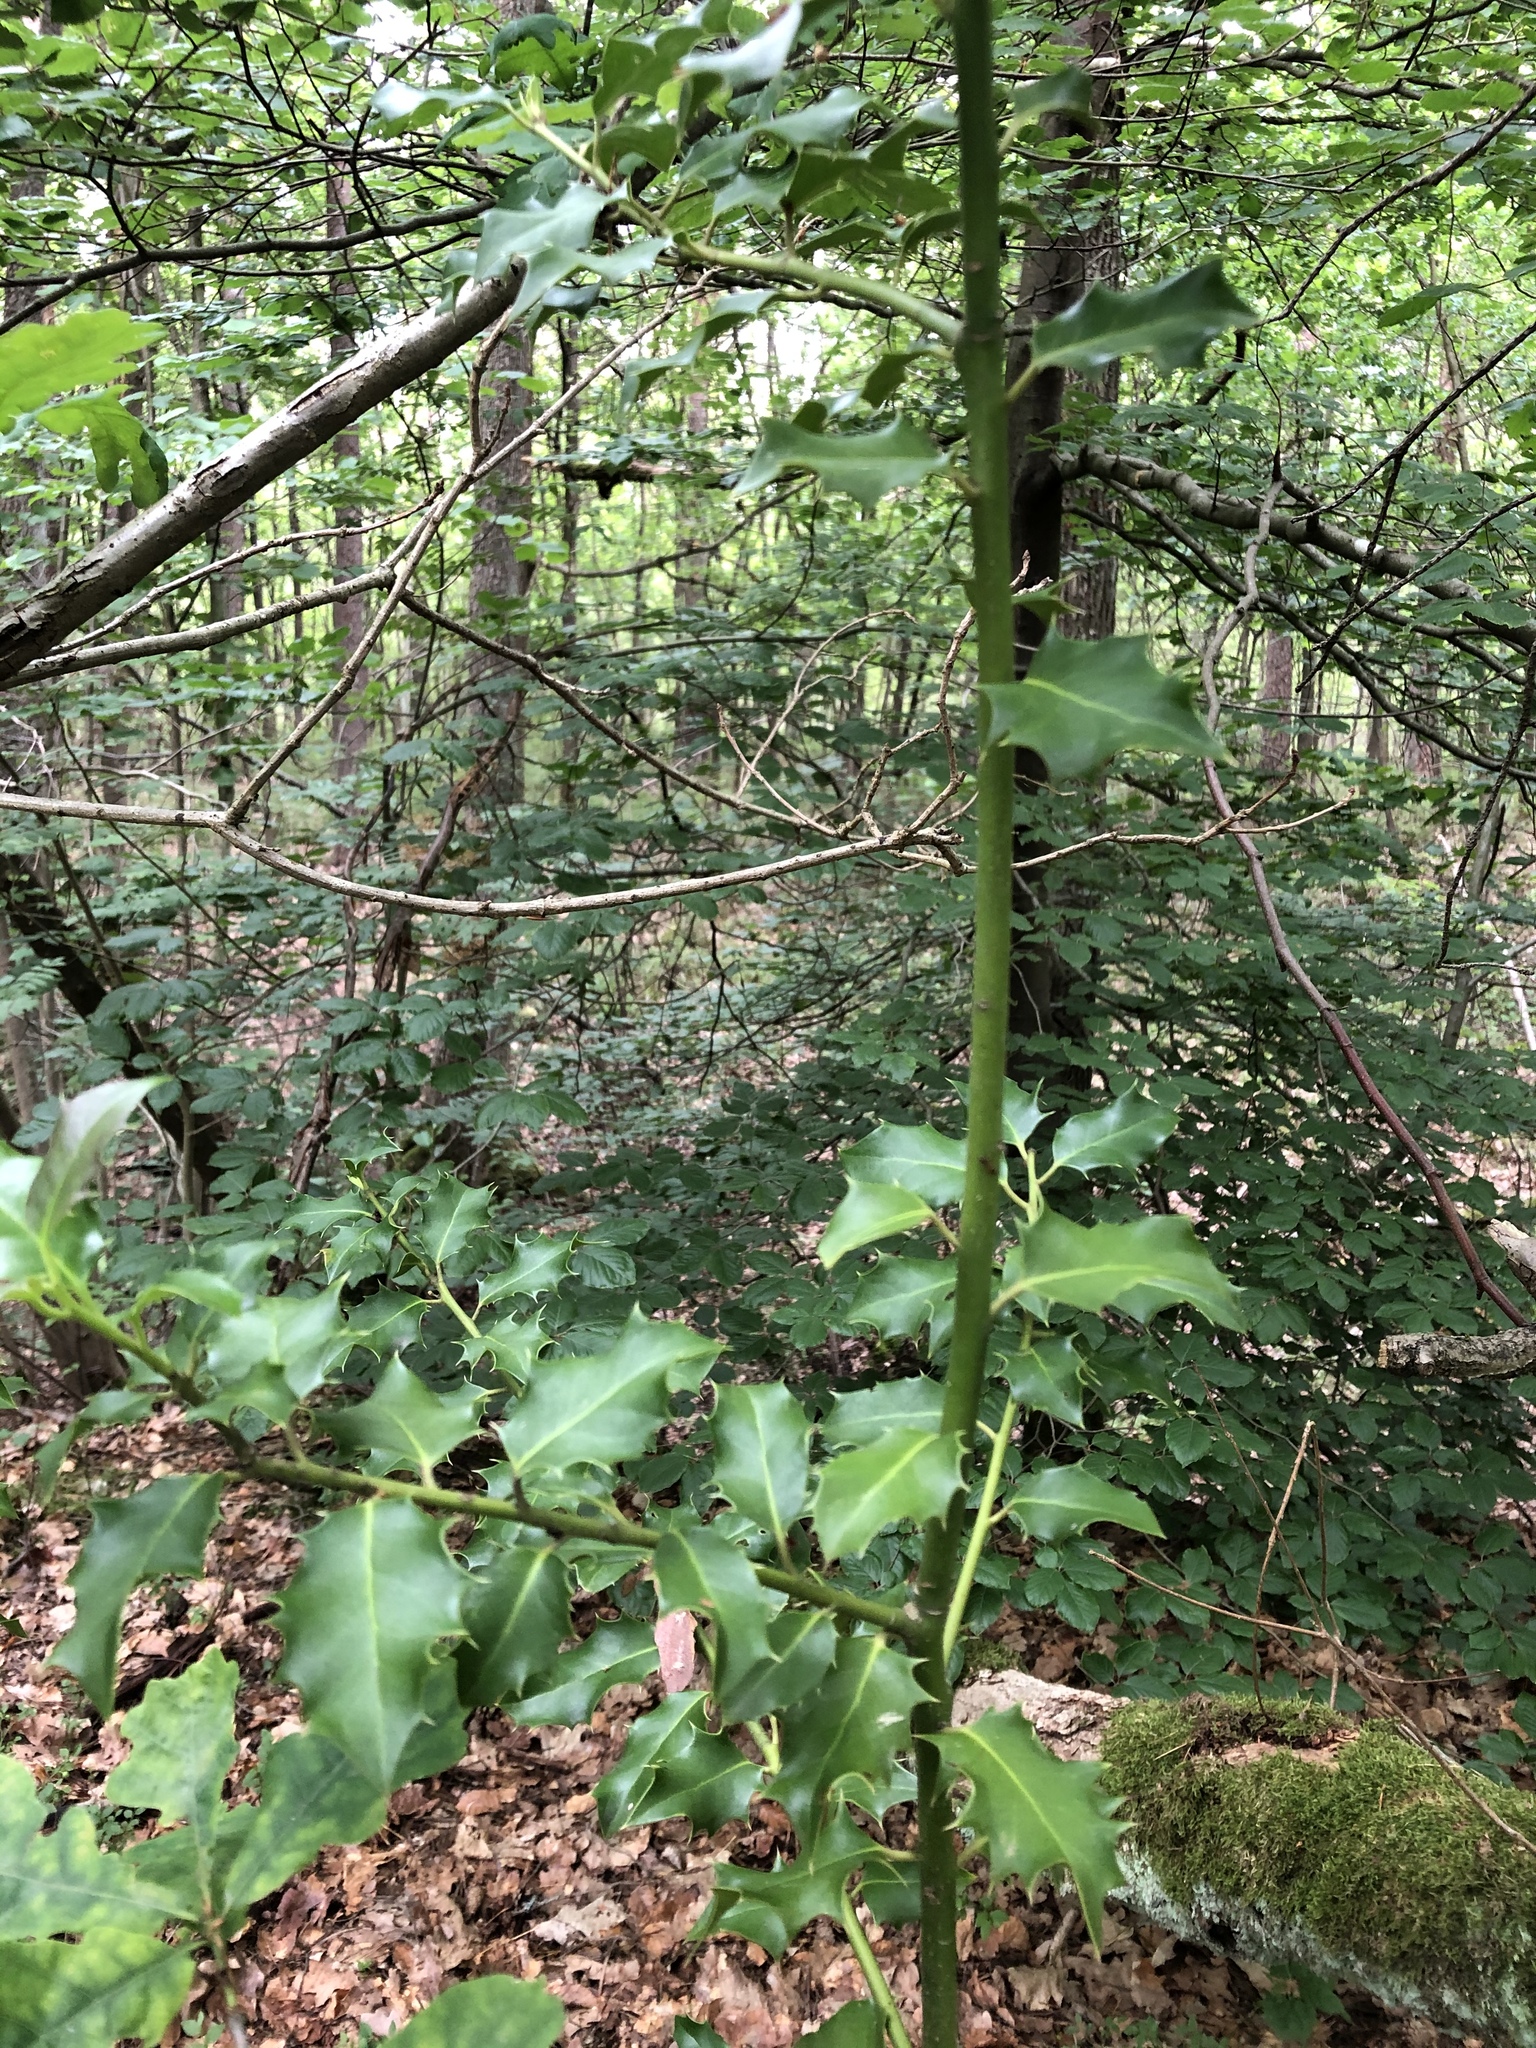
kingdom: Plantae
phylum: Tracheophyta
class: Magnoliopsida
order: Aquifoliales
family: Aquifoliaceae
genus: Ilex
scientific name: Ilex aquifolium
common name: English holly
